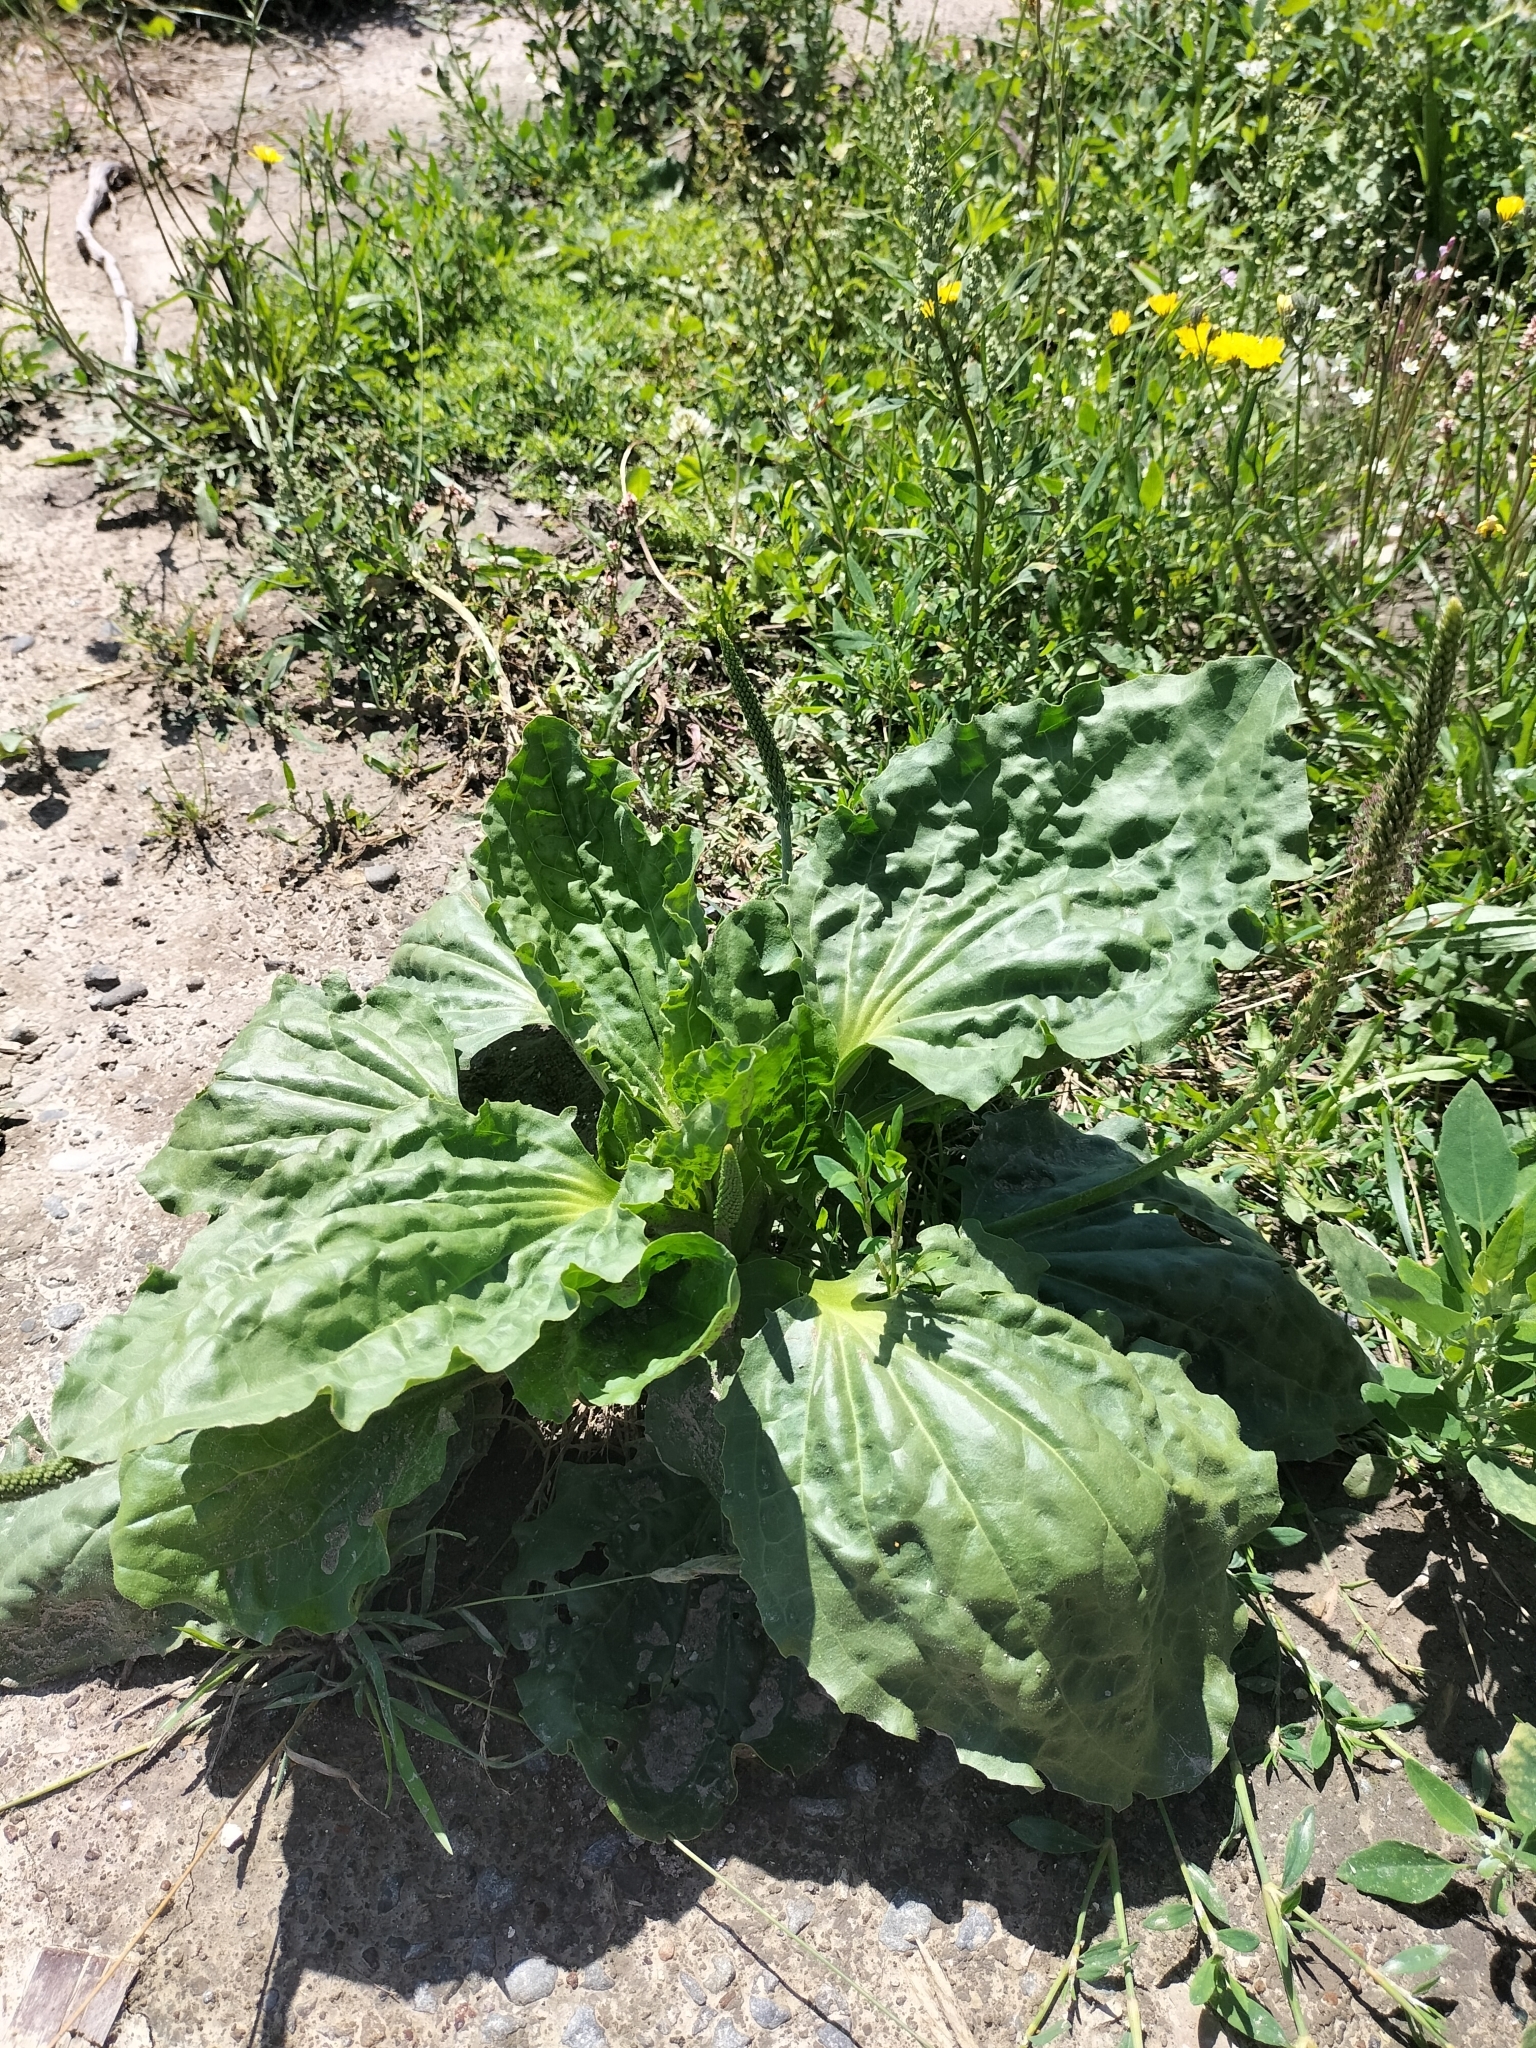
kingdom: Plantae
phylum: Tracheophyta
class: Magnoliopsida
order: Lamiales
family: Plantaginaceae
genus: Plantago
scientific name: Plantago major
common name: Common plantain
